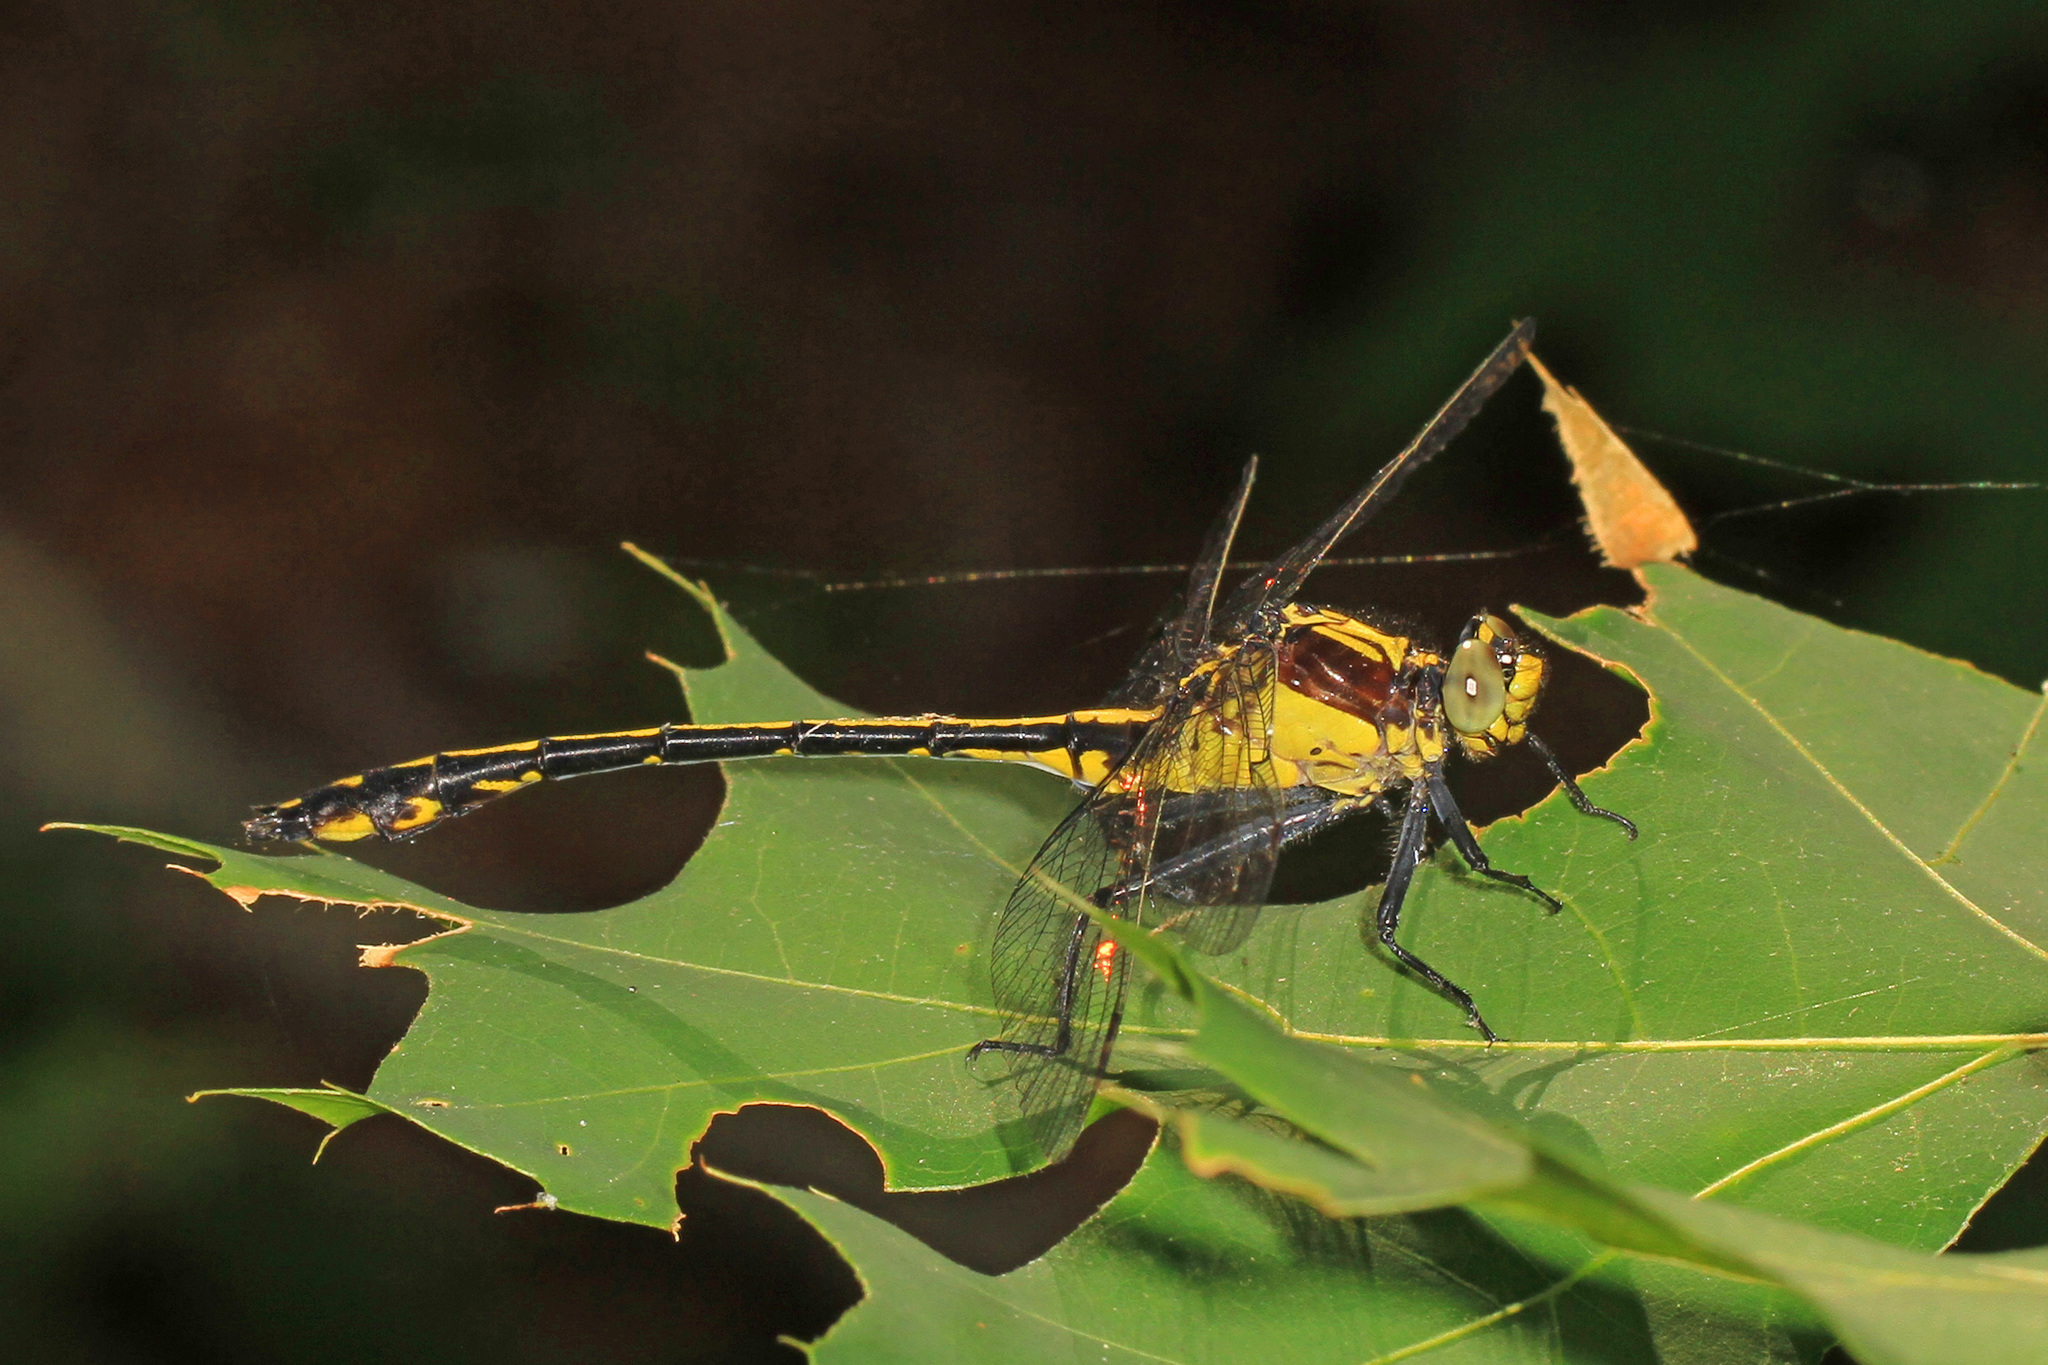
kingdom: Animalia
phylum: Arthropoda
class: Insecta
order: Odonata
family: Gomphidae
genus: Dromogomphus
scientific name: Dromogomphus spinosus
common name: Black-shouldered spinyleg
